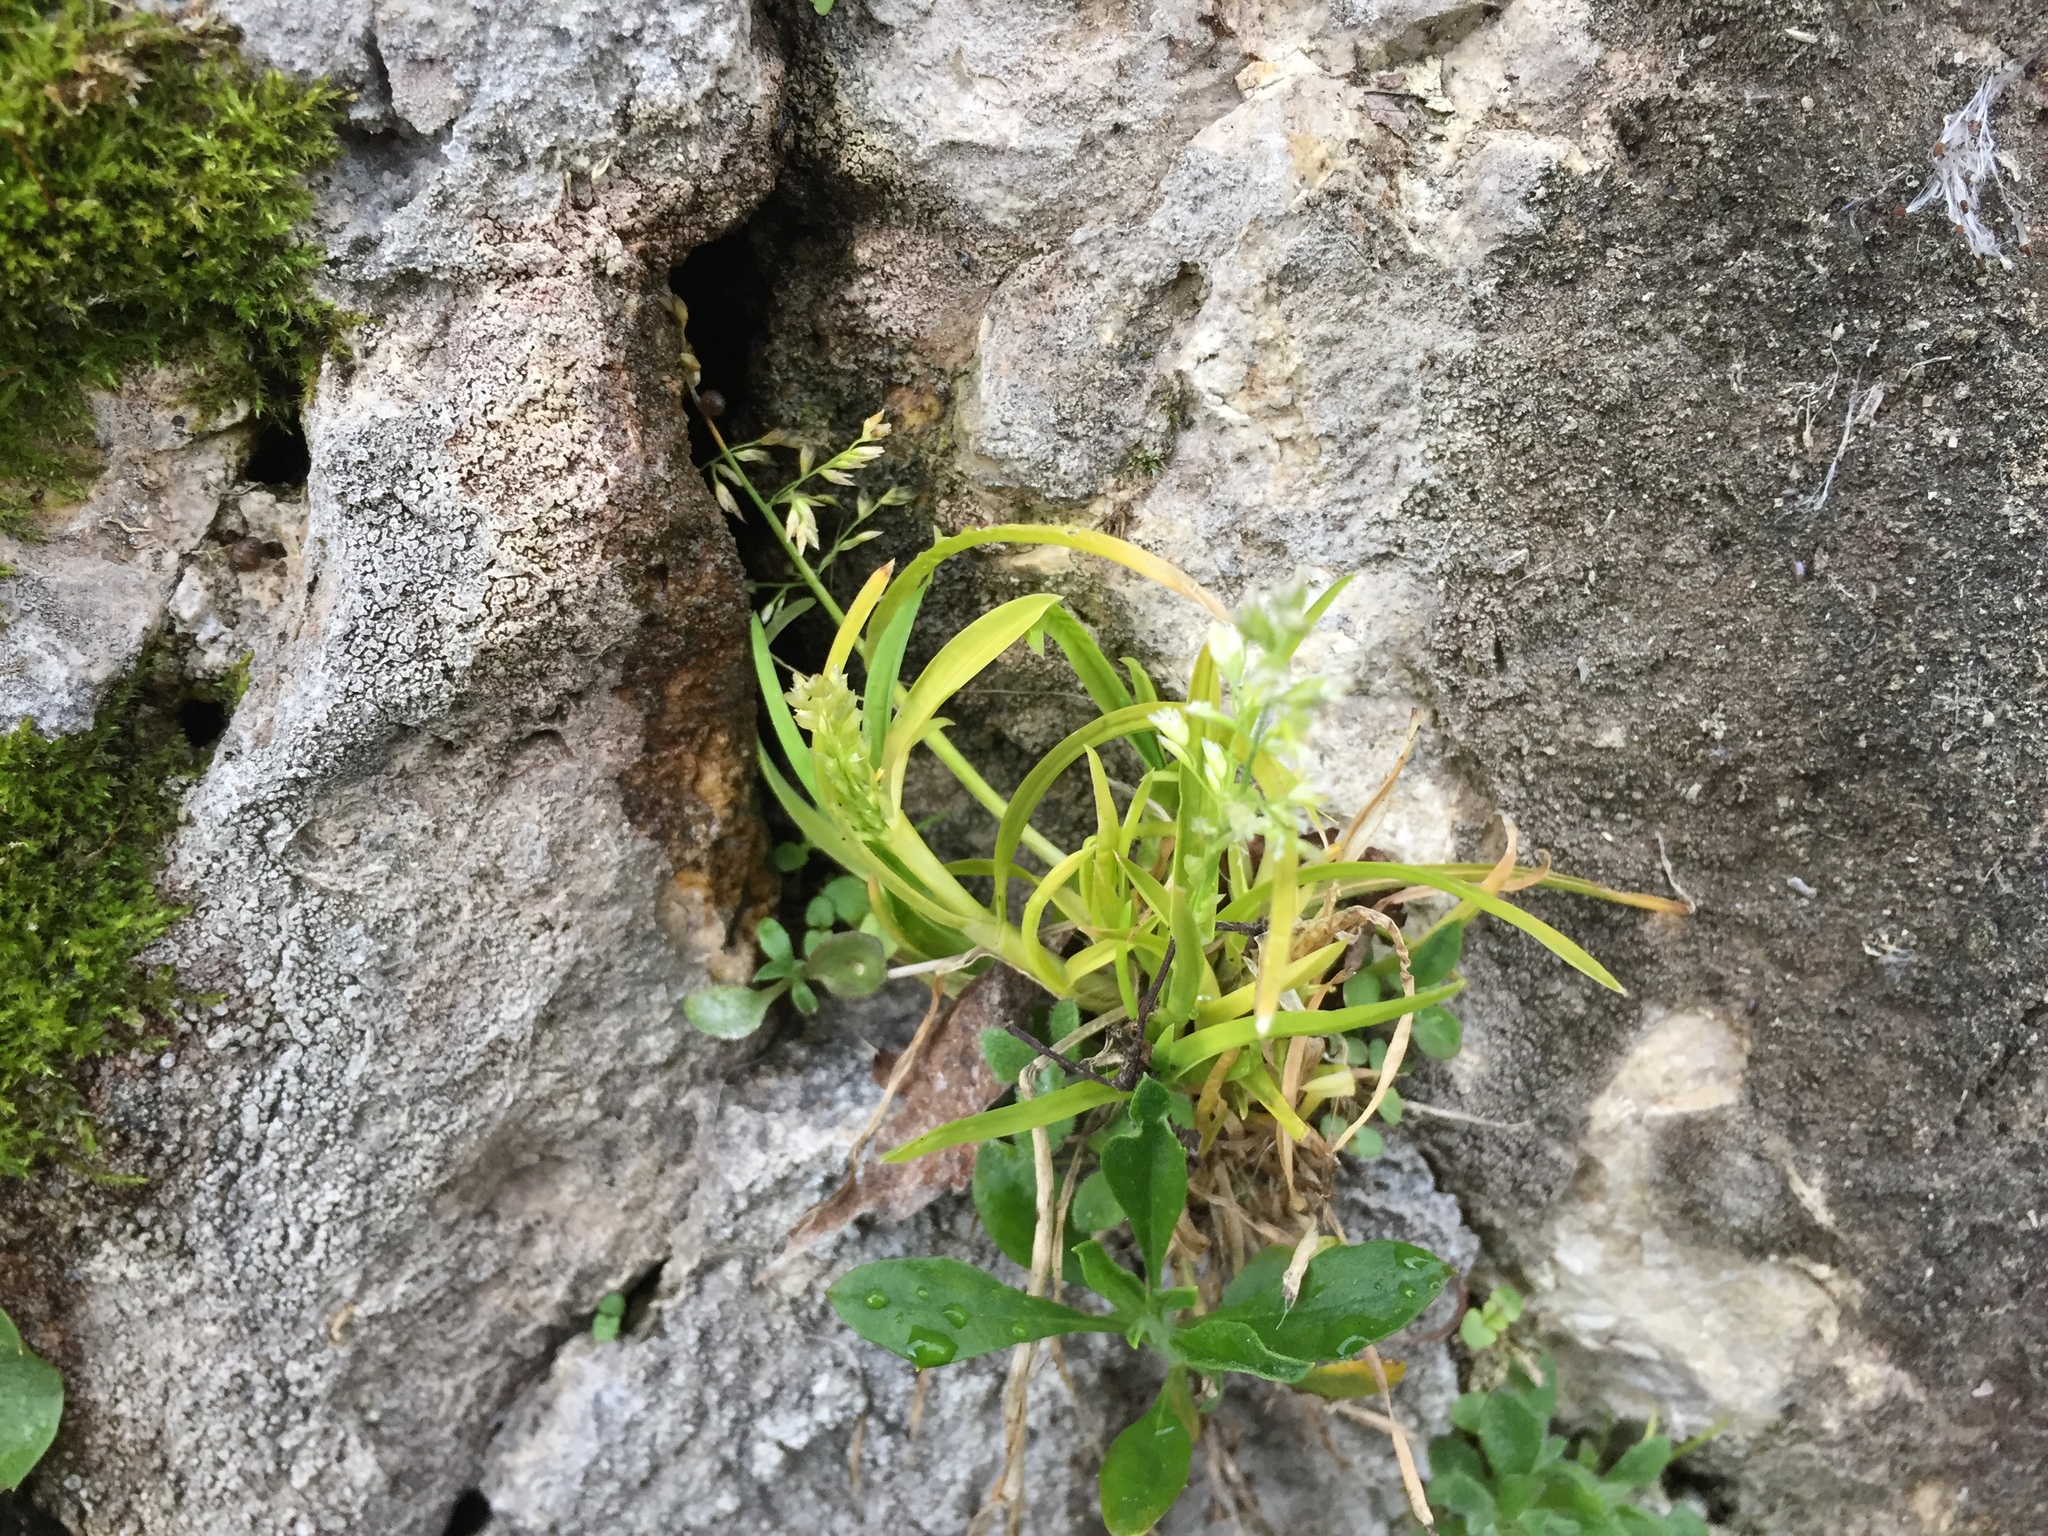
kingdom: Plantae
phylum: Tracheophyta
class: Liliopsida
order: Poales
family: Poaceae
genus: Poa
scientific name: Poa annua
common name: Annual bluegrass
